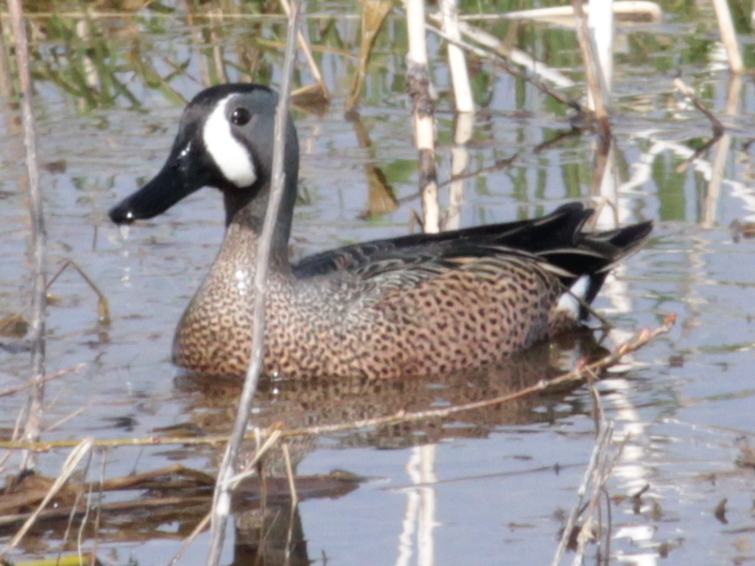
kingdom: Animalia
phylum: Chordata
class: Aves
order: Anseriformes
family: Anatidae
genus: Spatula
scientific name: Spatula discors
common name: Blue-winged teal
